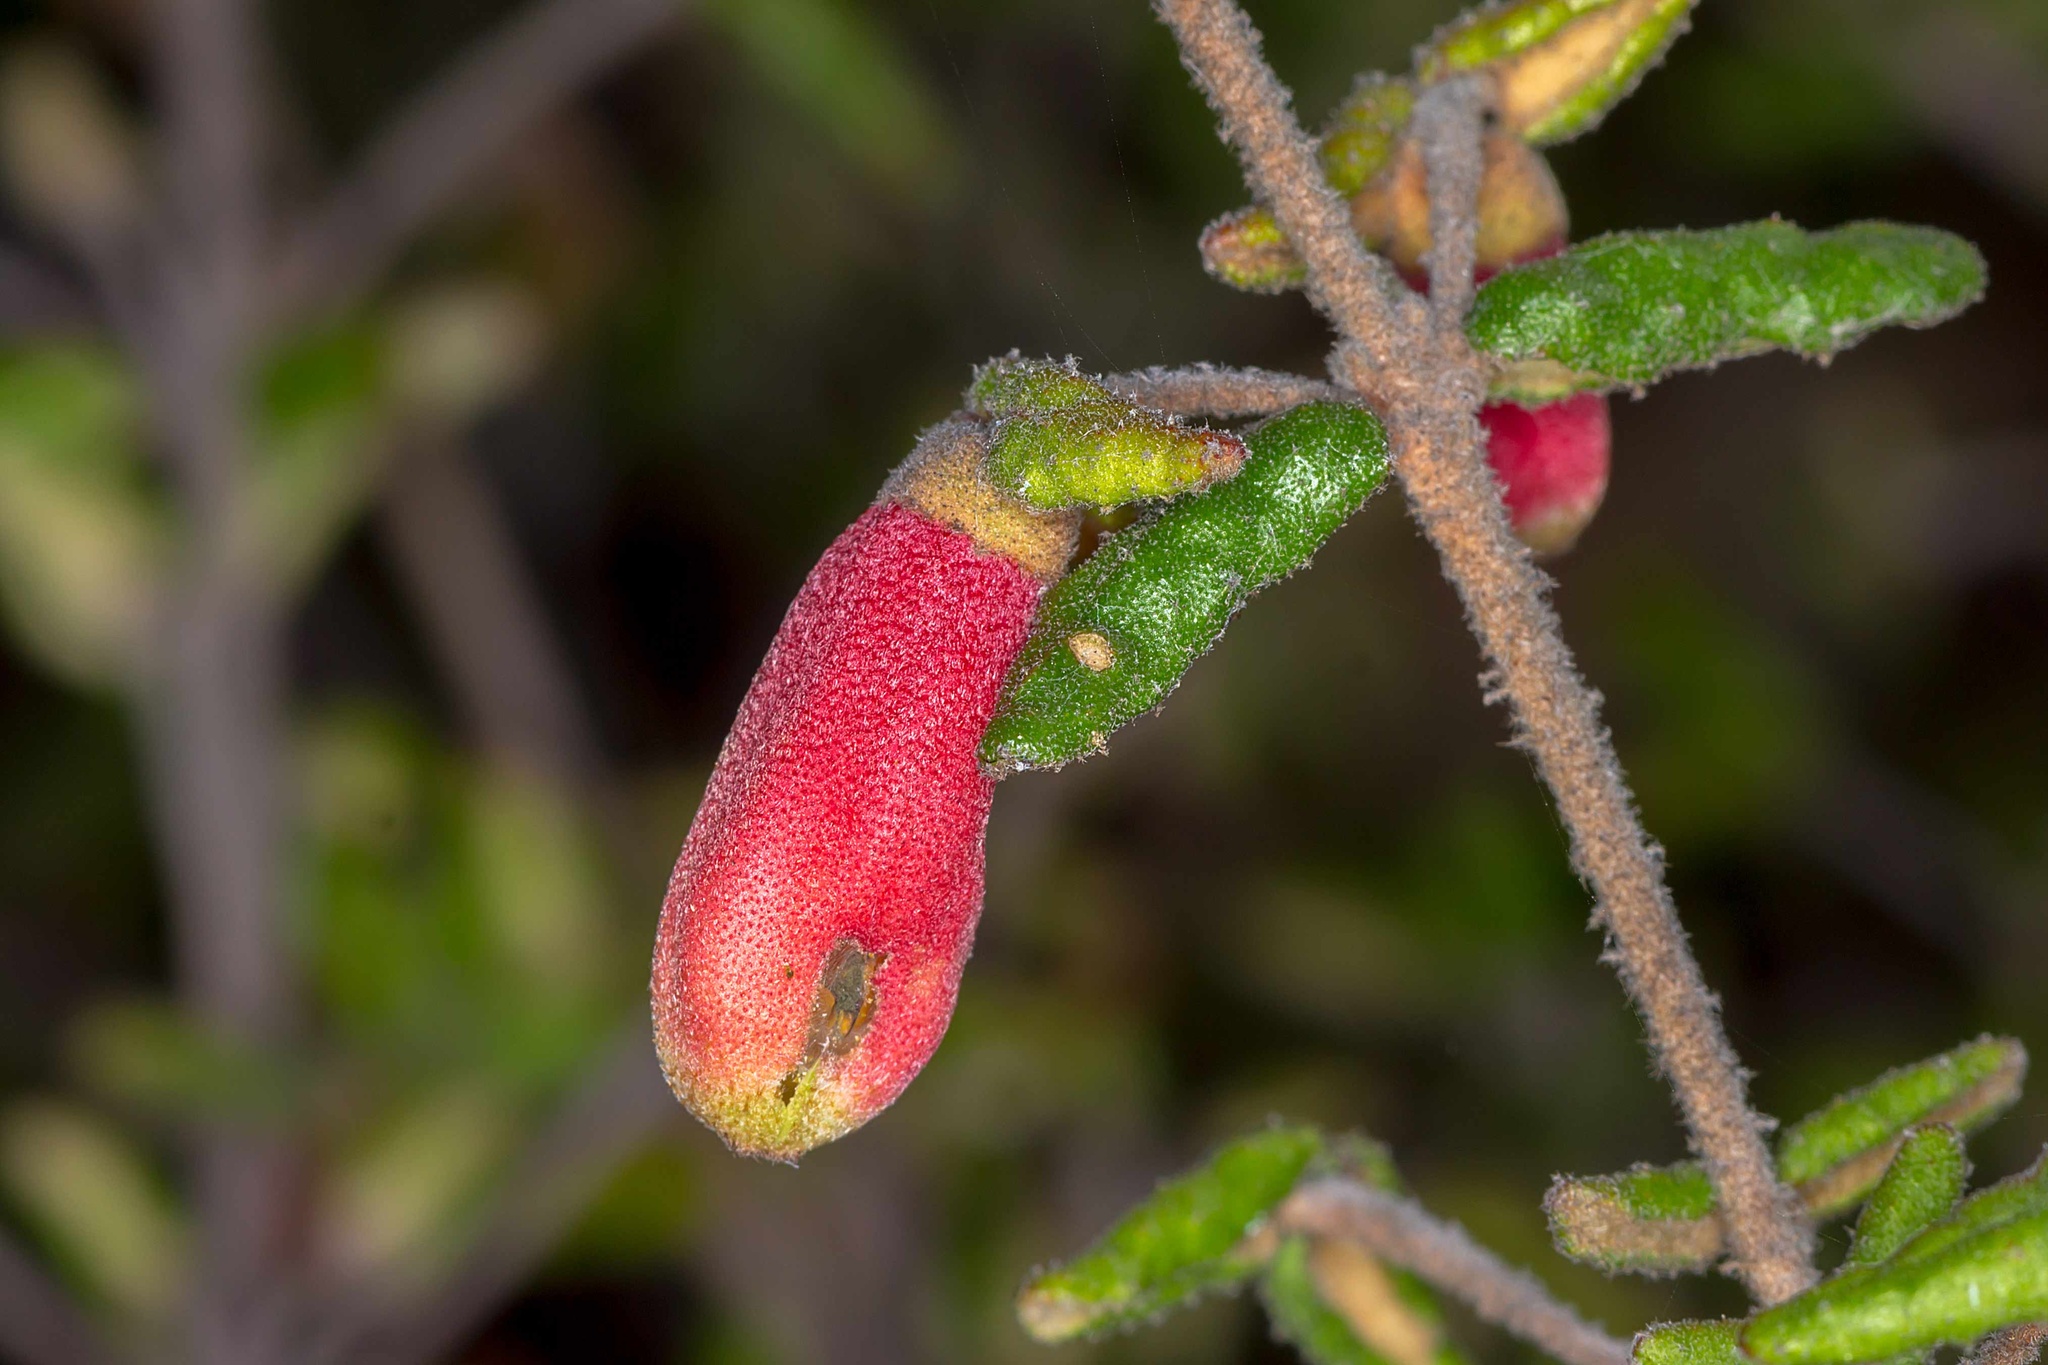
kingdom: Plantae
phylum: Tracheophyta
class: Magnoliopsida
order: Sapindales
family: Rutaceae
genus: Correa
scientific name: Correa reflexa
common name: Common correa
